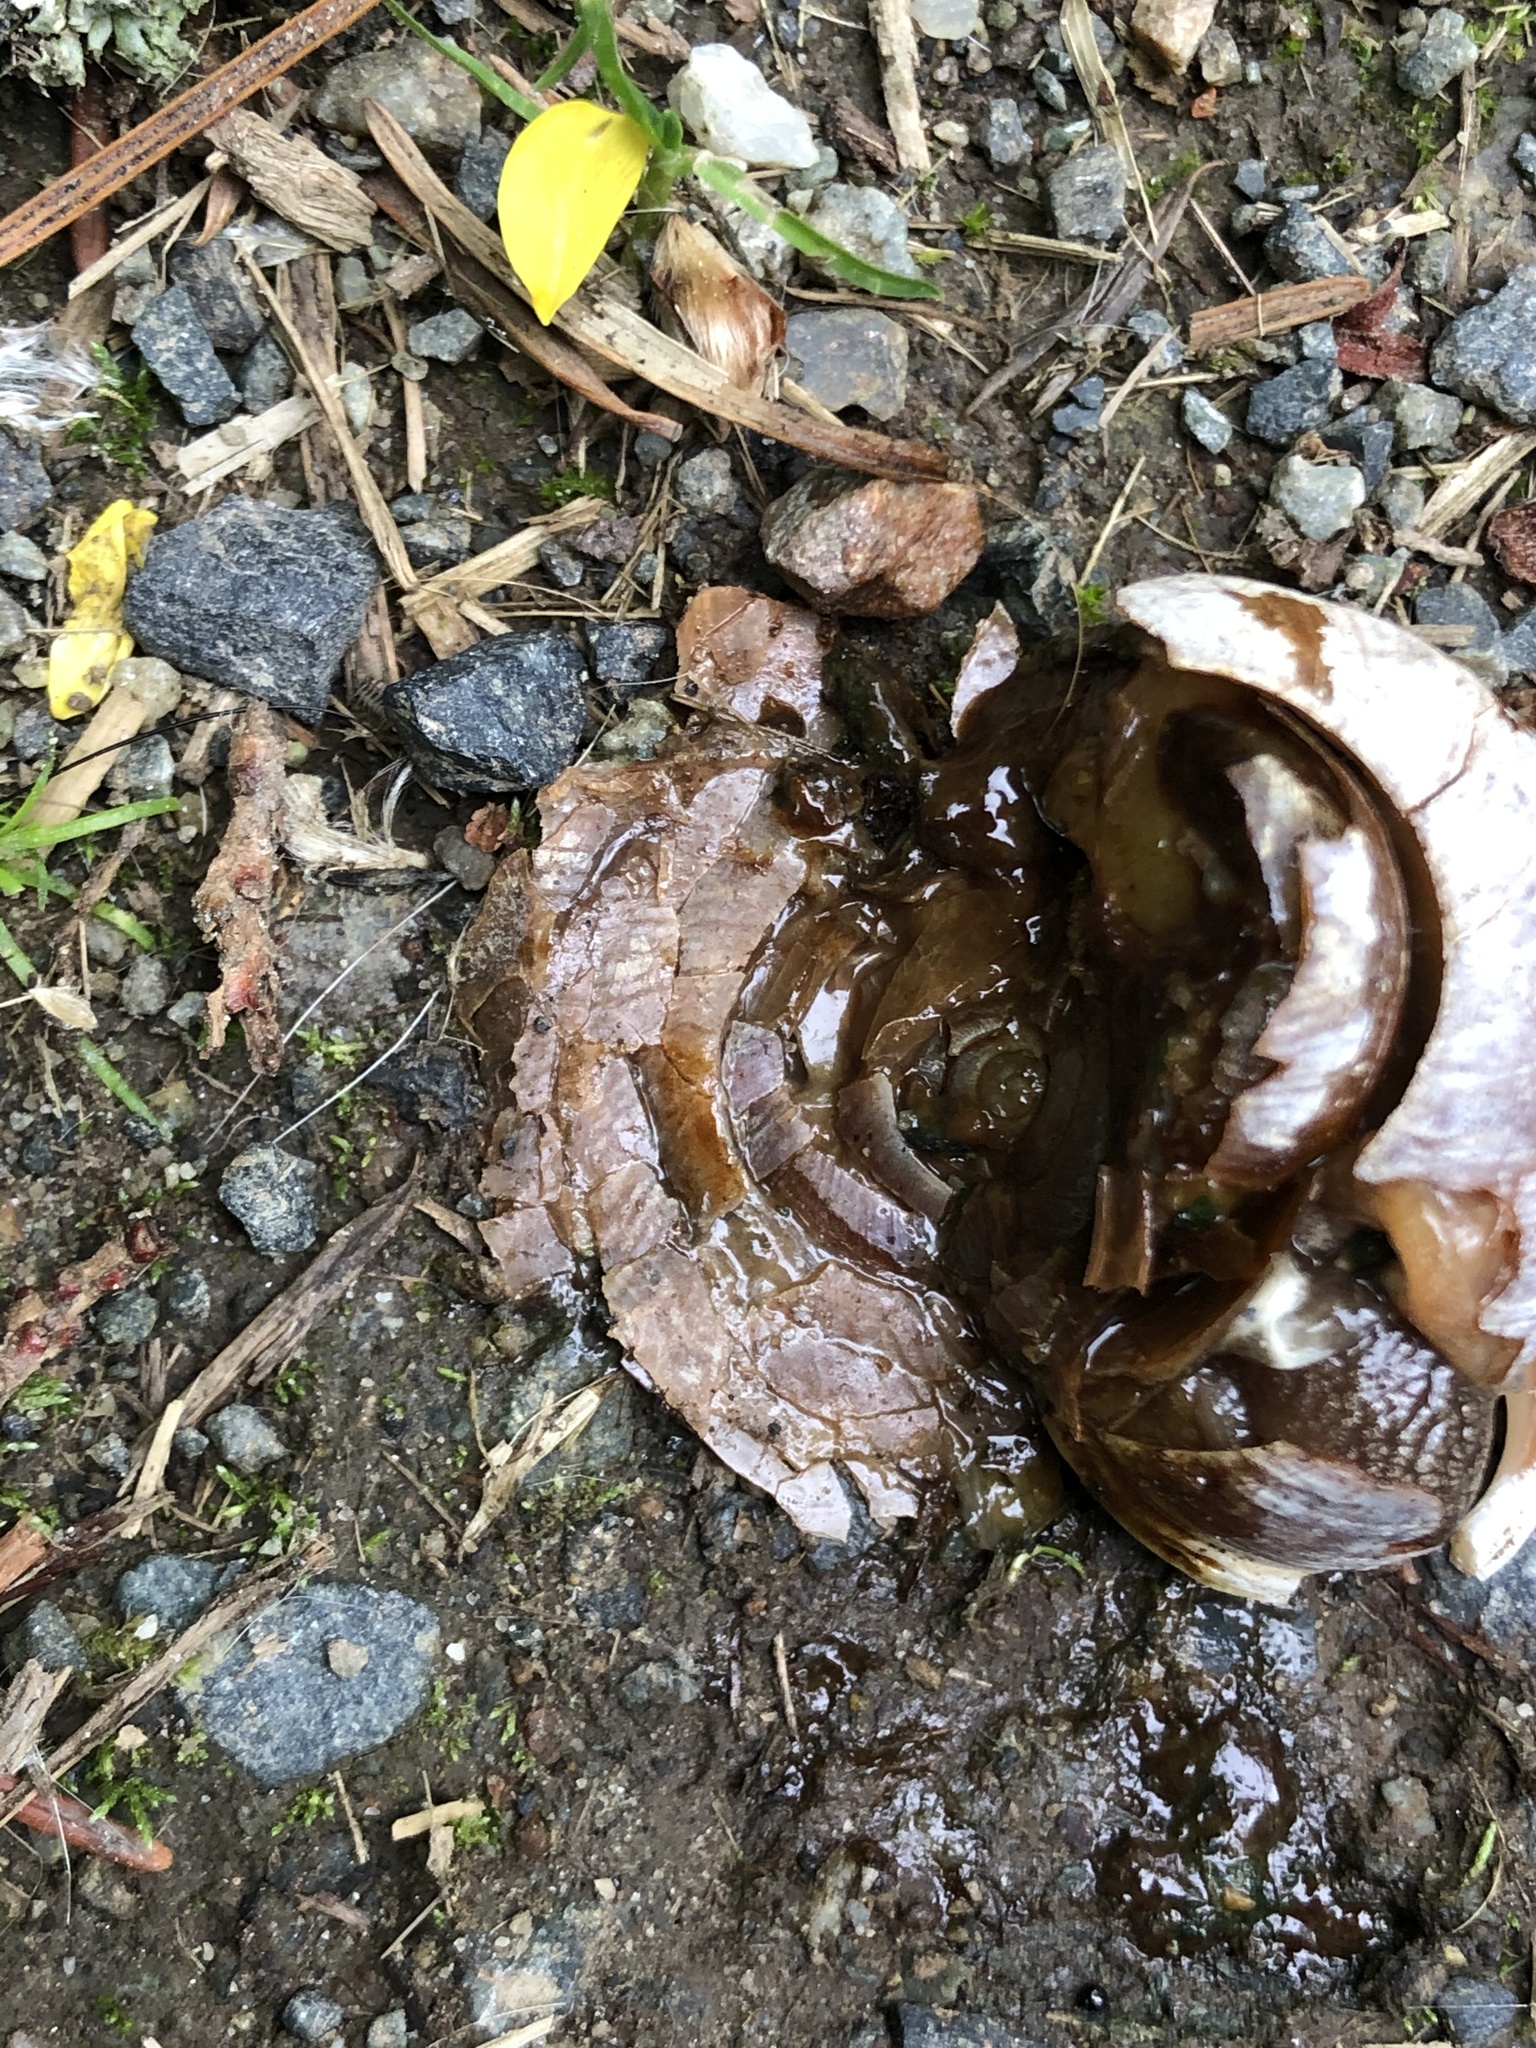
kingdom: Animalia
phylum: Mollusca
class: Gastropoda
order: Stylommatophora
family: Polygyridae
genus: Allogona
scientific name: Allogona townsendiana
